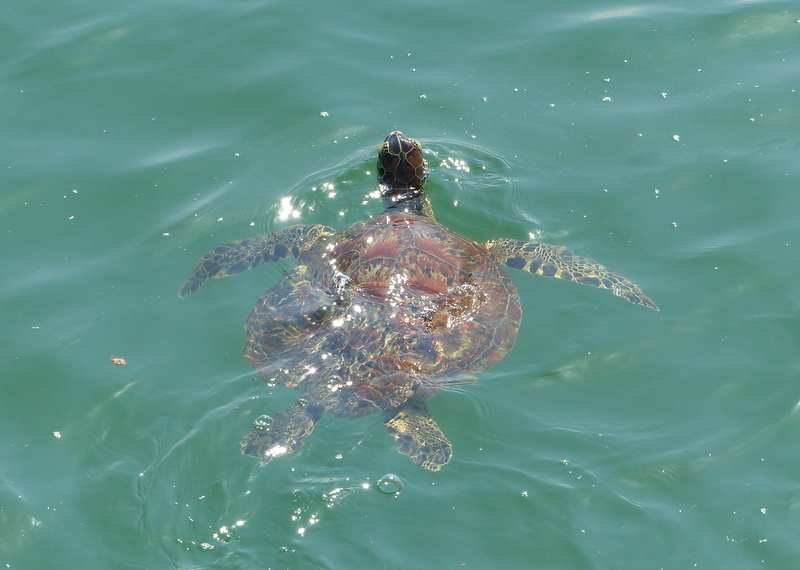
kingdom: Animalia
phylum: Chordata
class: Testudines
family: Cheloniidae
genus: Chelonia
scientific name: Chelonia mydas
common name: Green turtle
